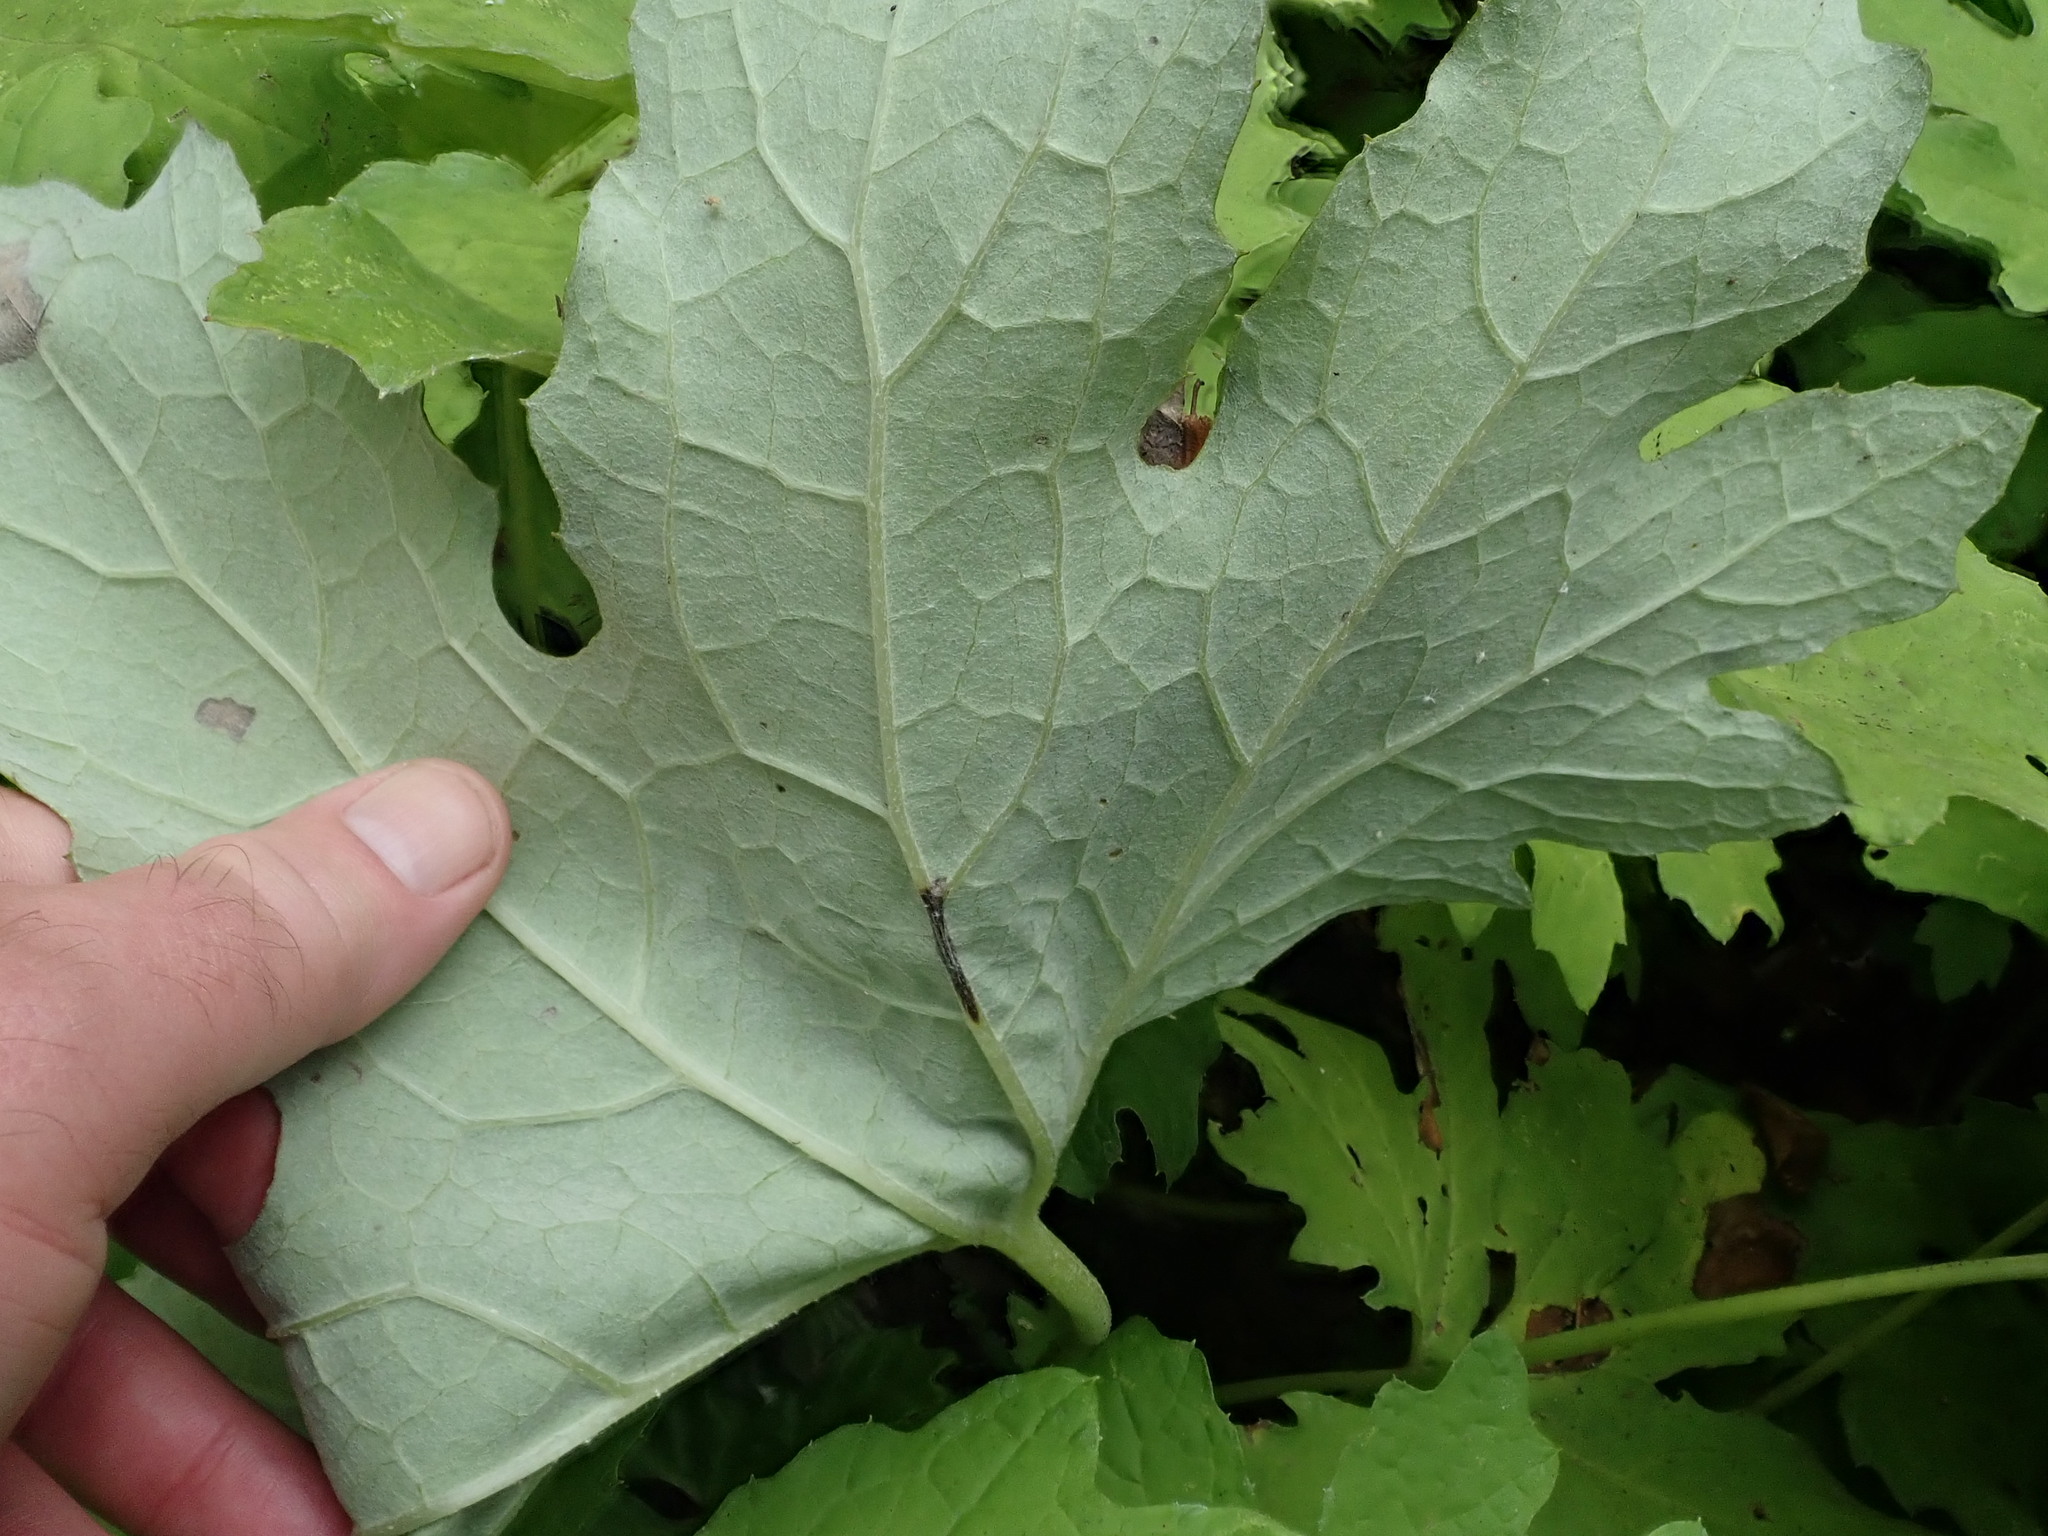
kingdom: Plantae
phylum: Tracheophyta
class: Magnoliopsida
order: Asterales
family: Asteraceae
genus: Petasites
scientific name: Petasites frigidus
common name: Arctic butterbur
